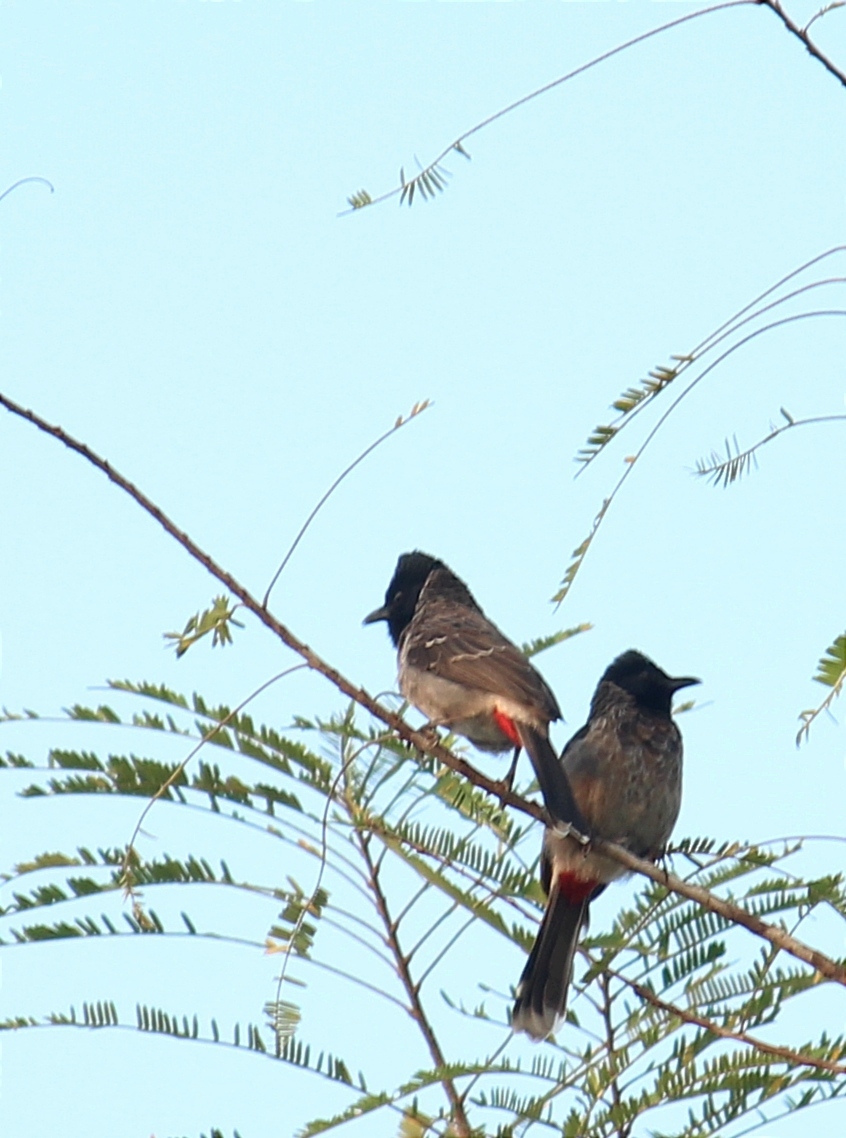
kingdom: Animalia
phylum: Chordata
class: Aves
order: Passeriformes
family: Pycnonotidae
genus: Pycnonotus
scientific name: Pycnonotus cafer
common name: Red-vented bulbul
